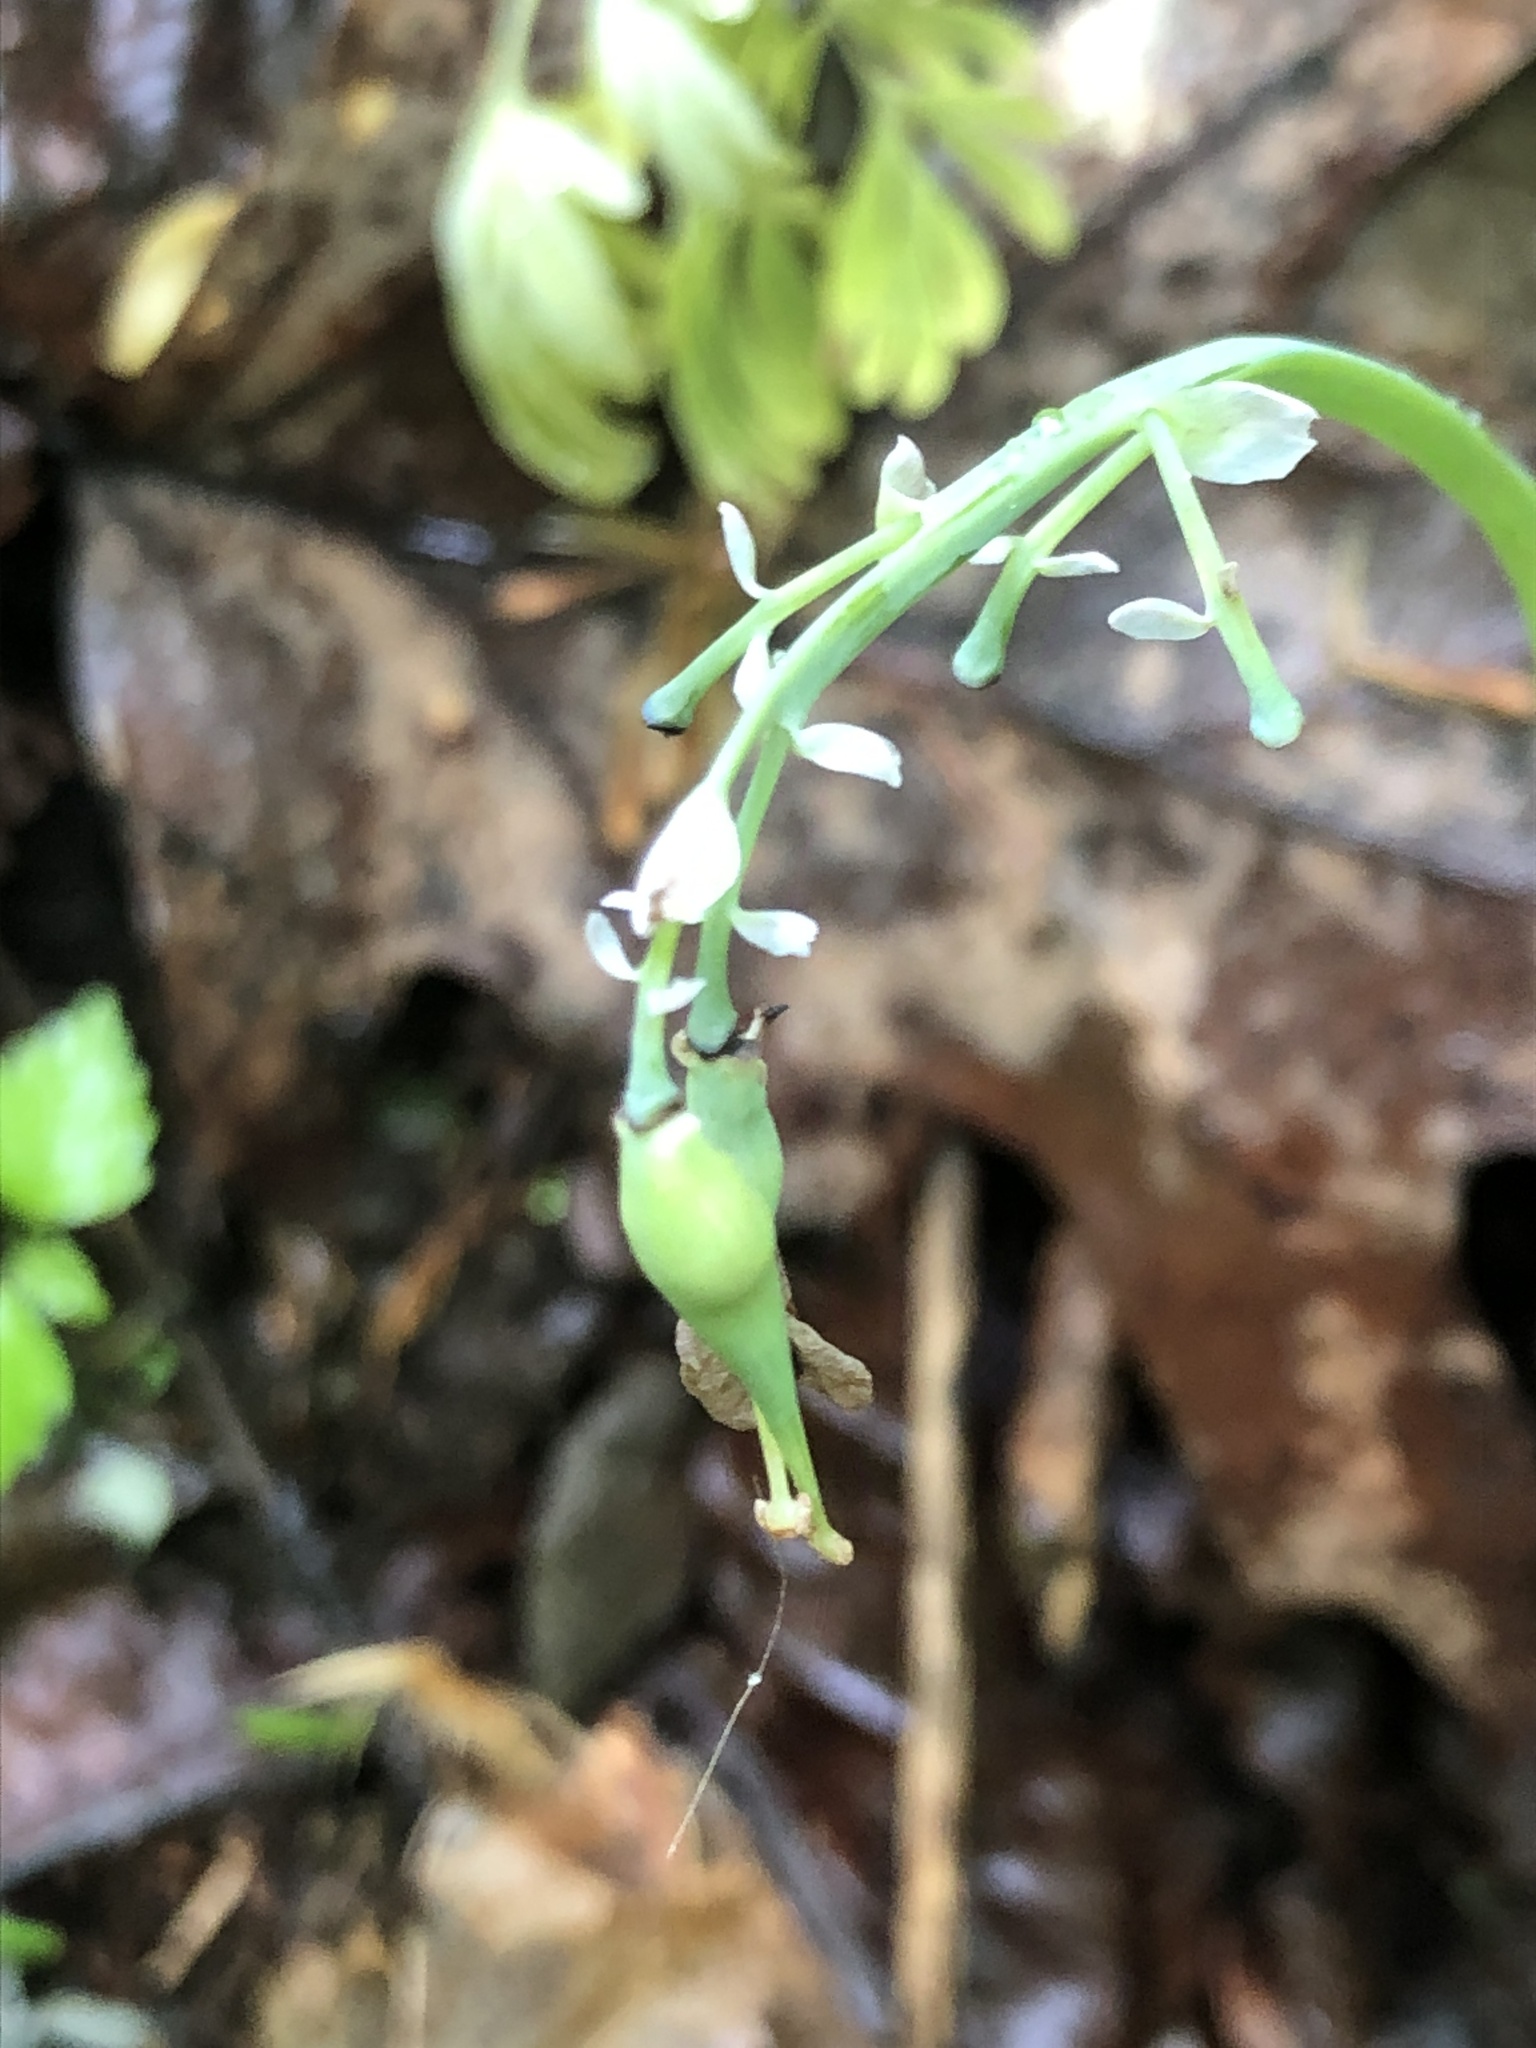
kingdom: Plantae
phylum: Tracheophyta
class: Magnoliopsida
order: Ranunculales
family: Papaveraceae
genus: Dicentra
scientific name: Dicentra canadensis
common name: Squirrel-corn
